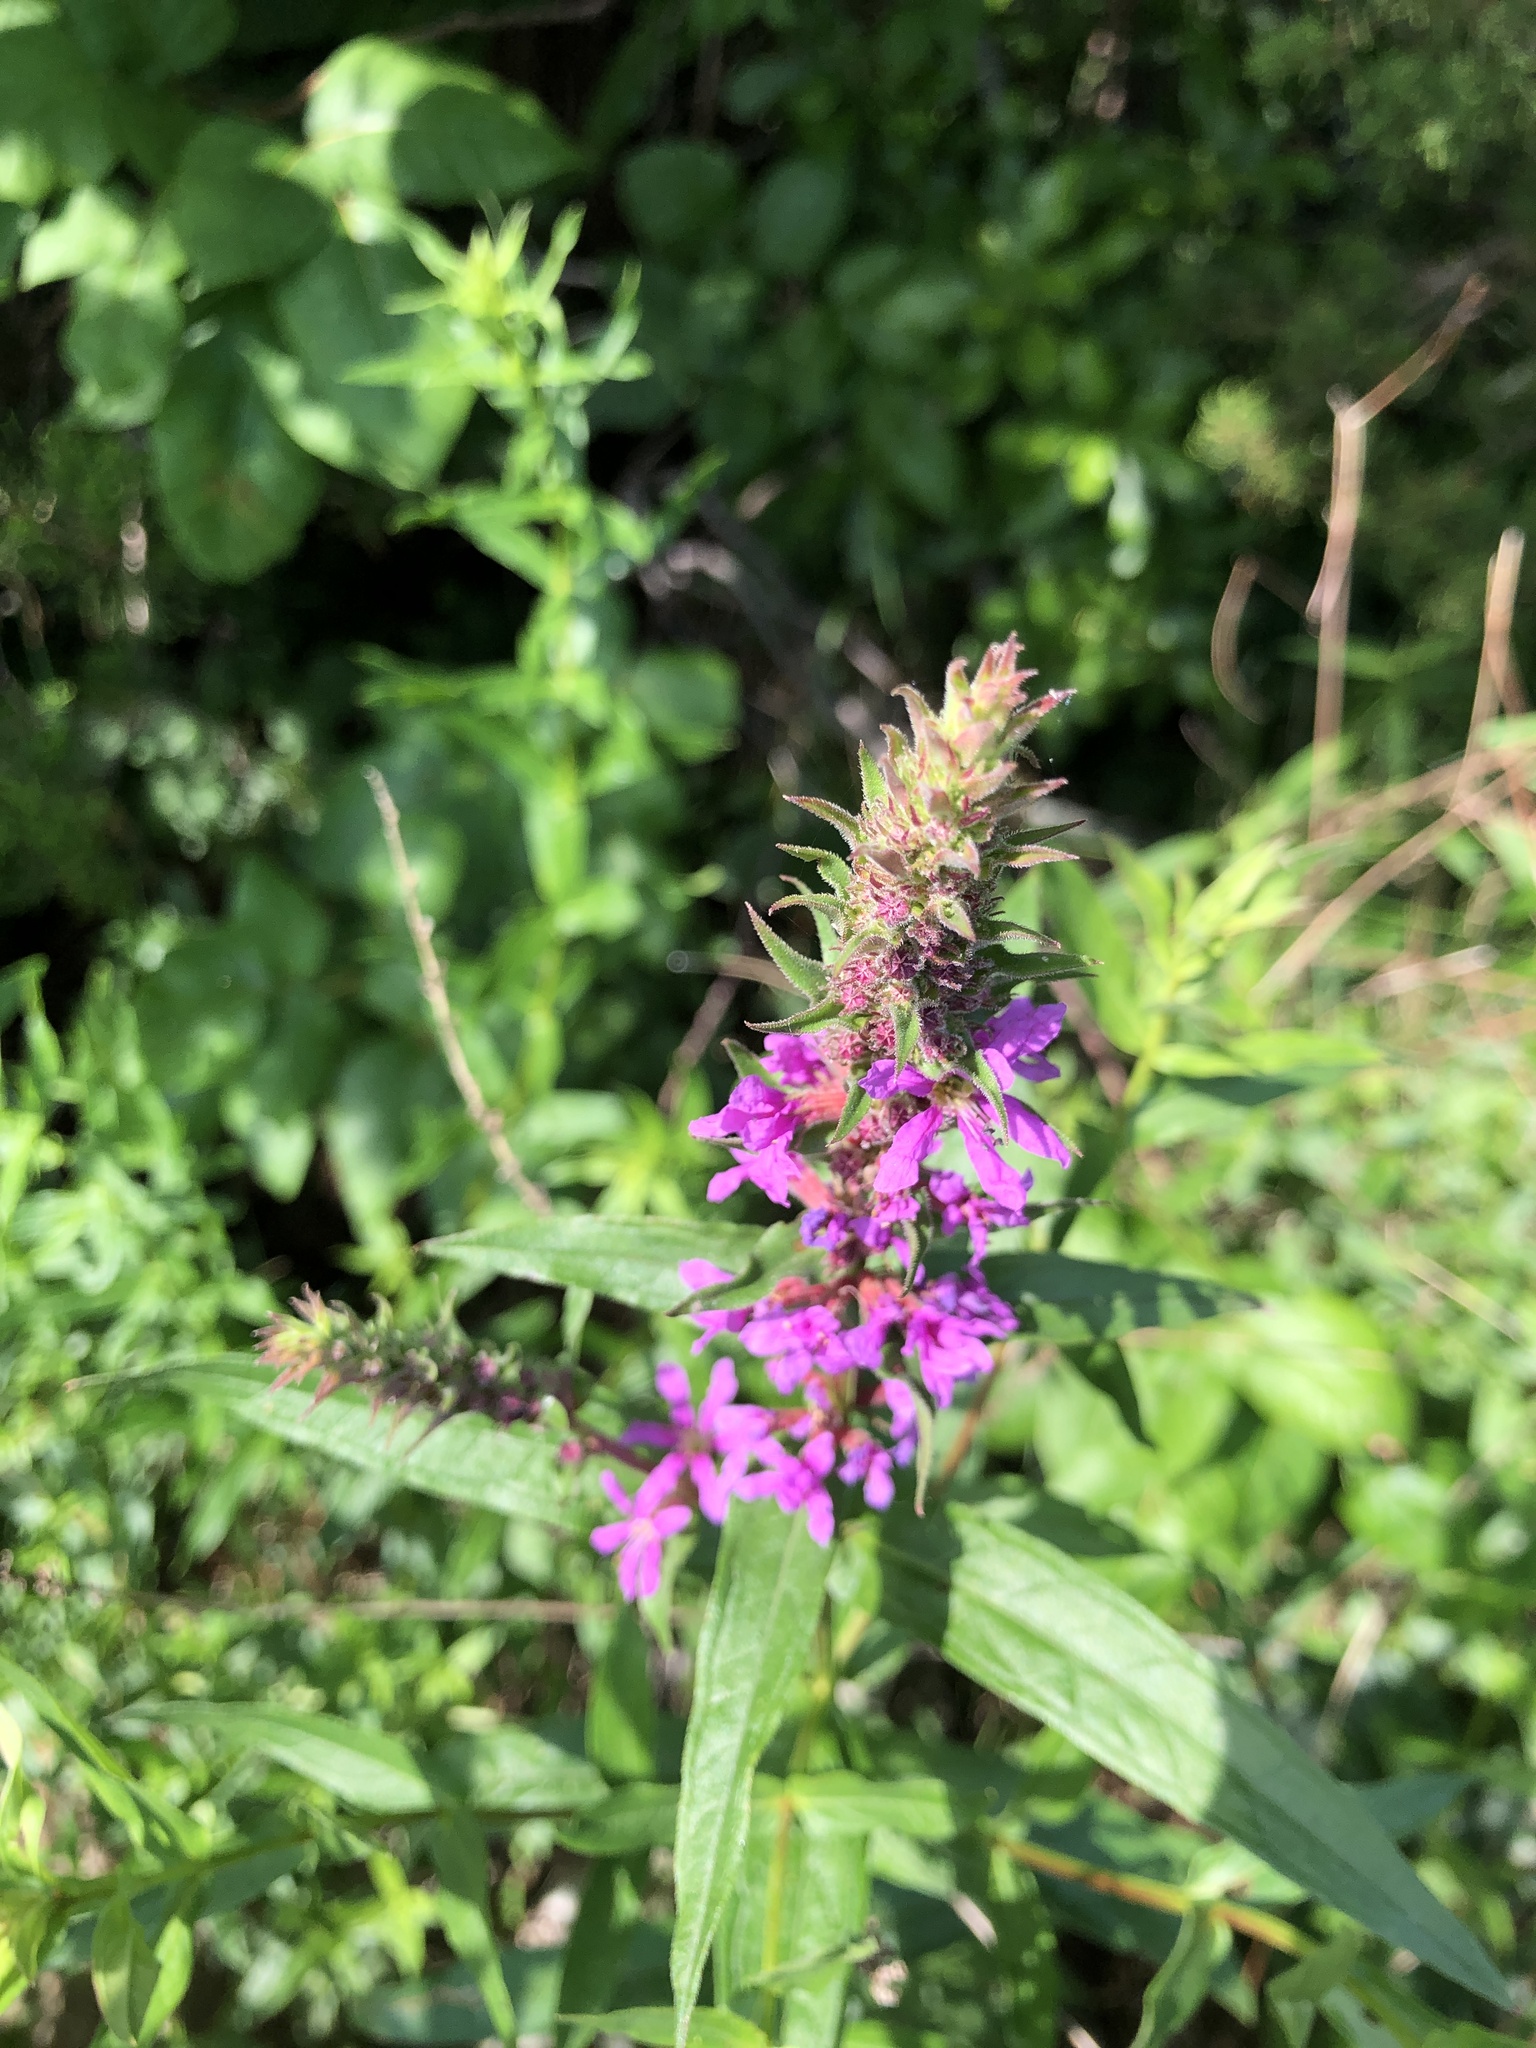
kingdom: Plantae
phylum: Tracheophyta
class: Magnoliopsida
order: Myrtales
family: Lythraceae
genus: Lythrum
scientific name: Lythrum salicaria
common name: Purple loosestrife
